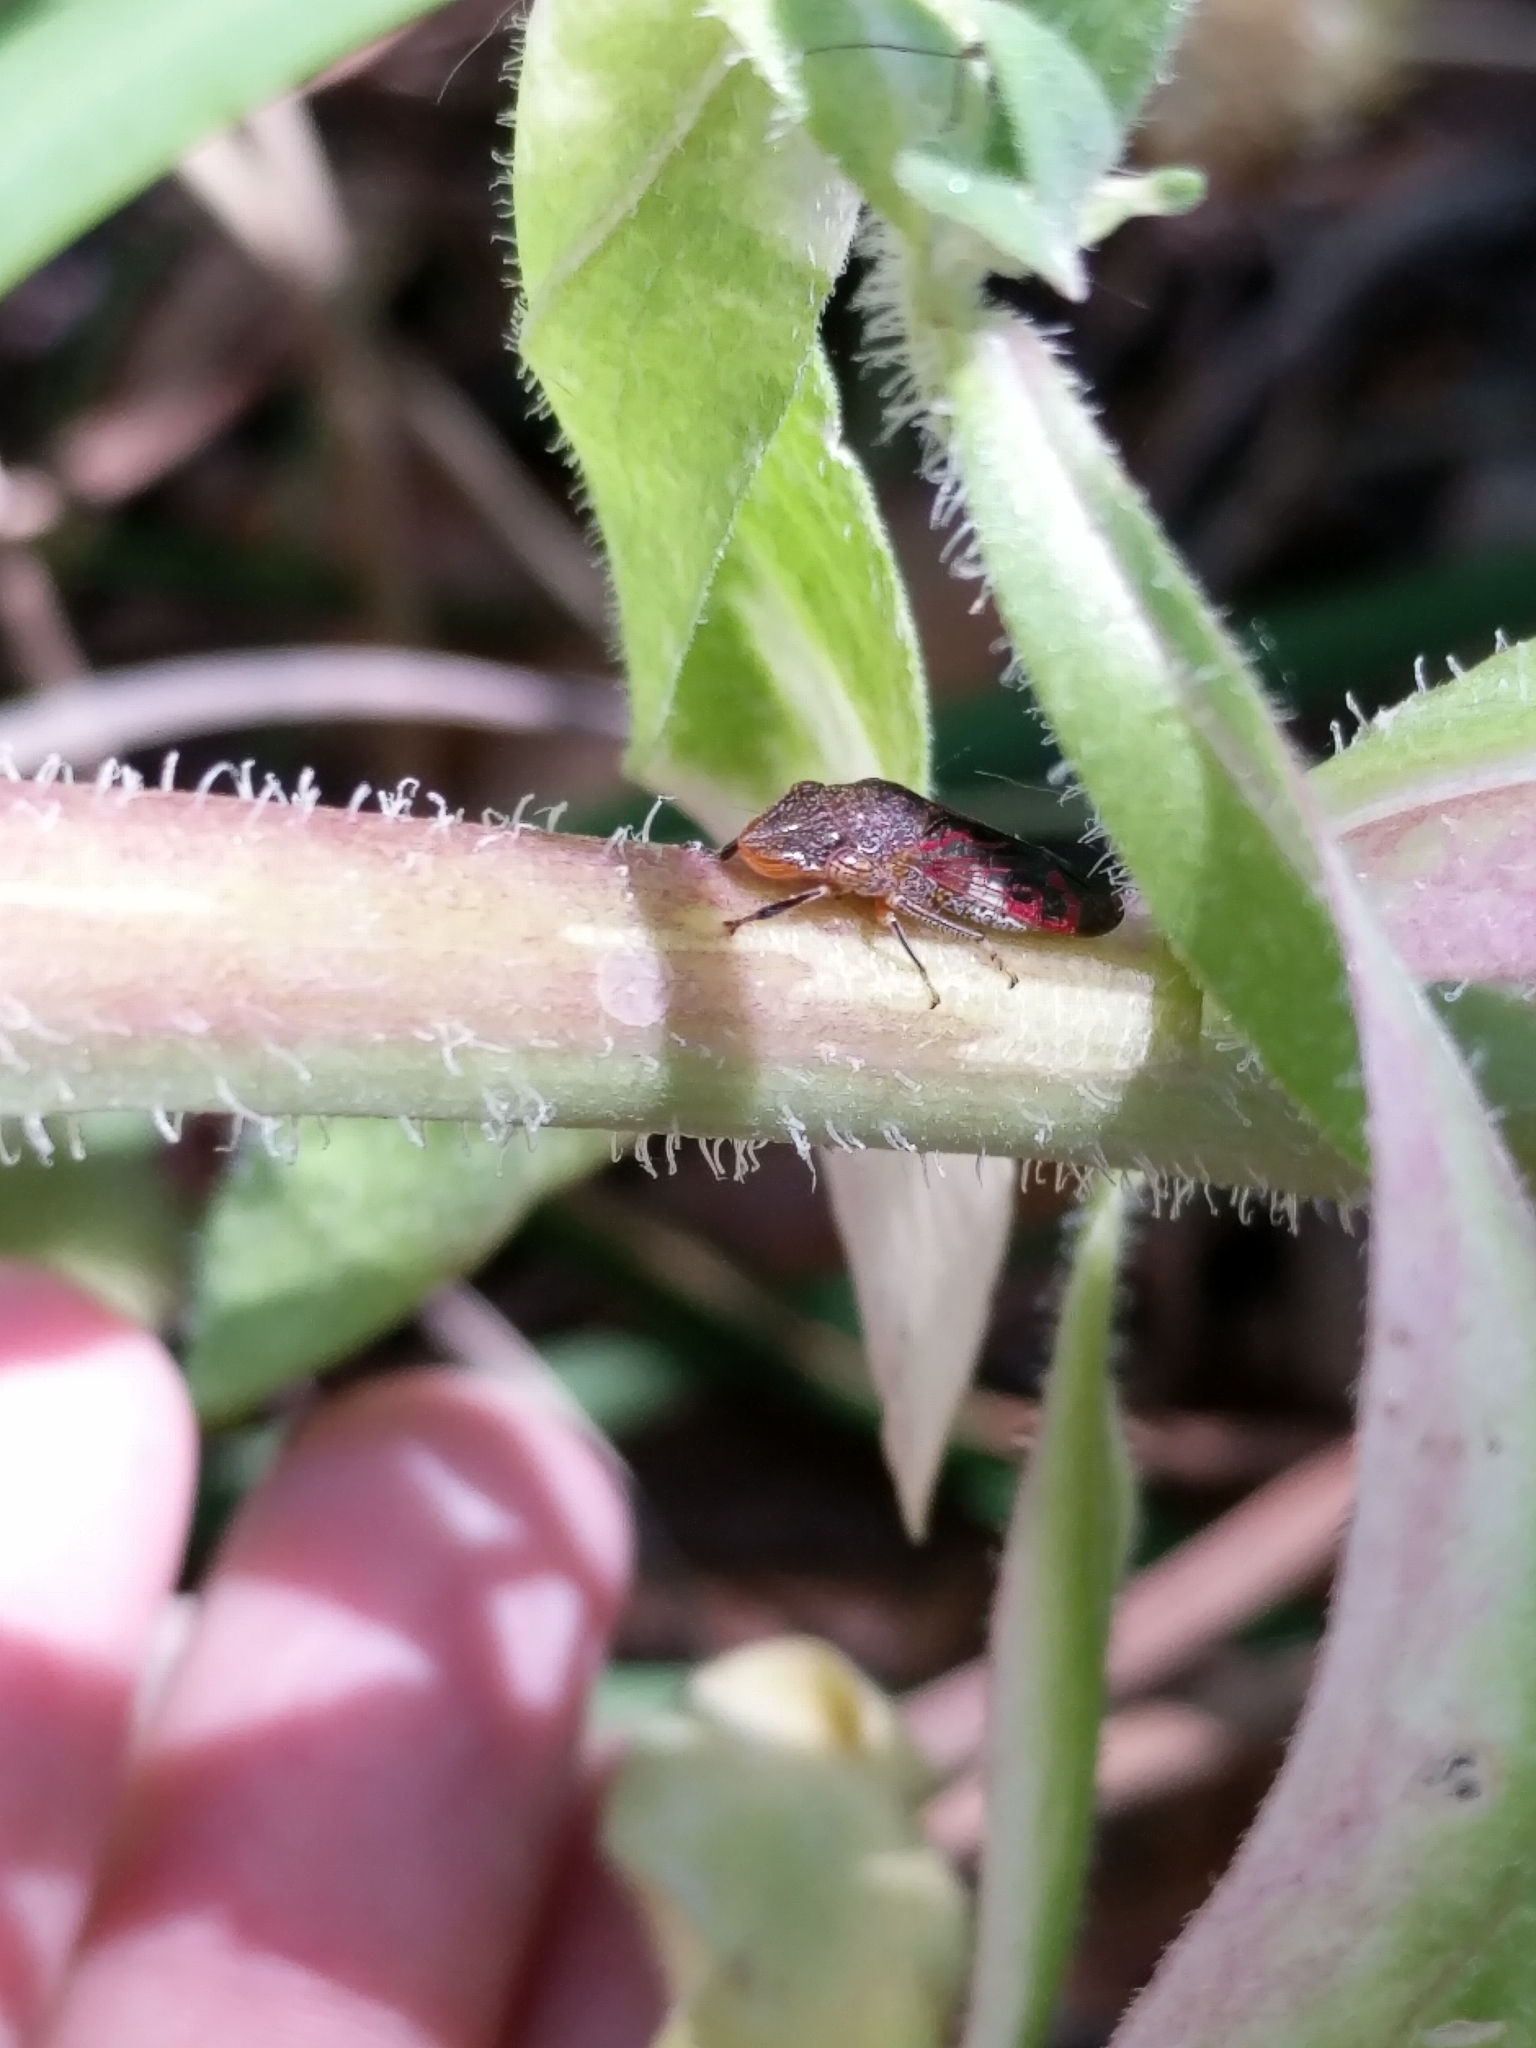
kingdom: Animalia
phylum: Arthropoda
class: Insecta
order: Hemiptera
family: Cicadellidae
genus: Homalodisca
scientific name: Homalodisca vitripennis
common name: Glassy-winged sharpshooter
